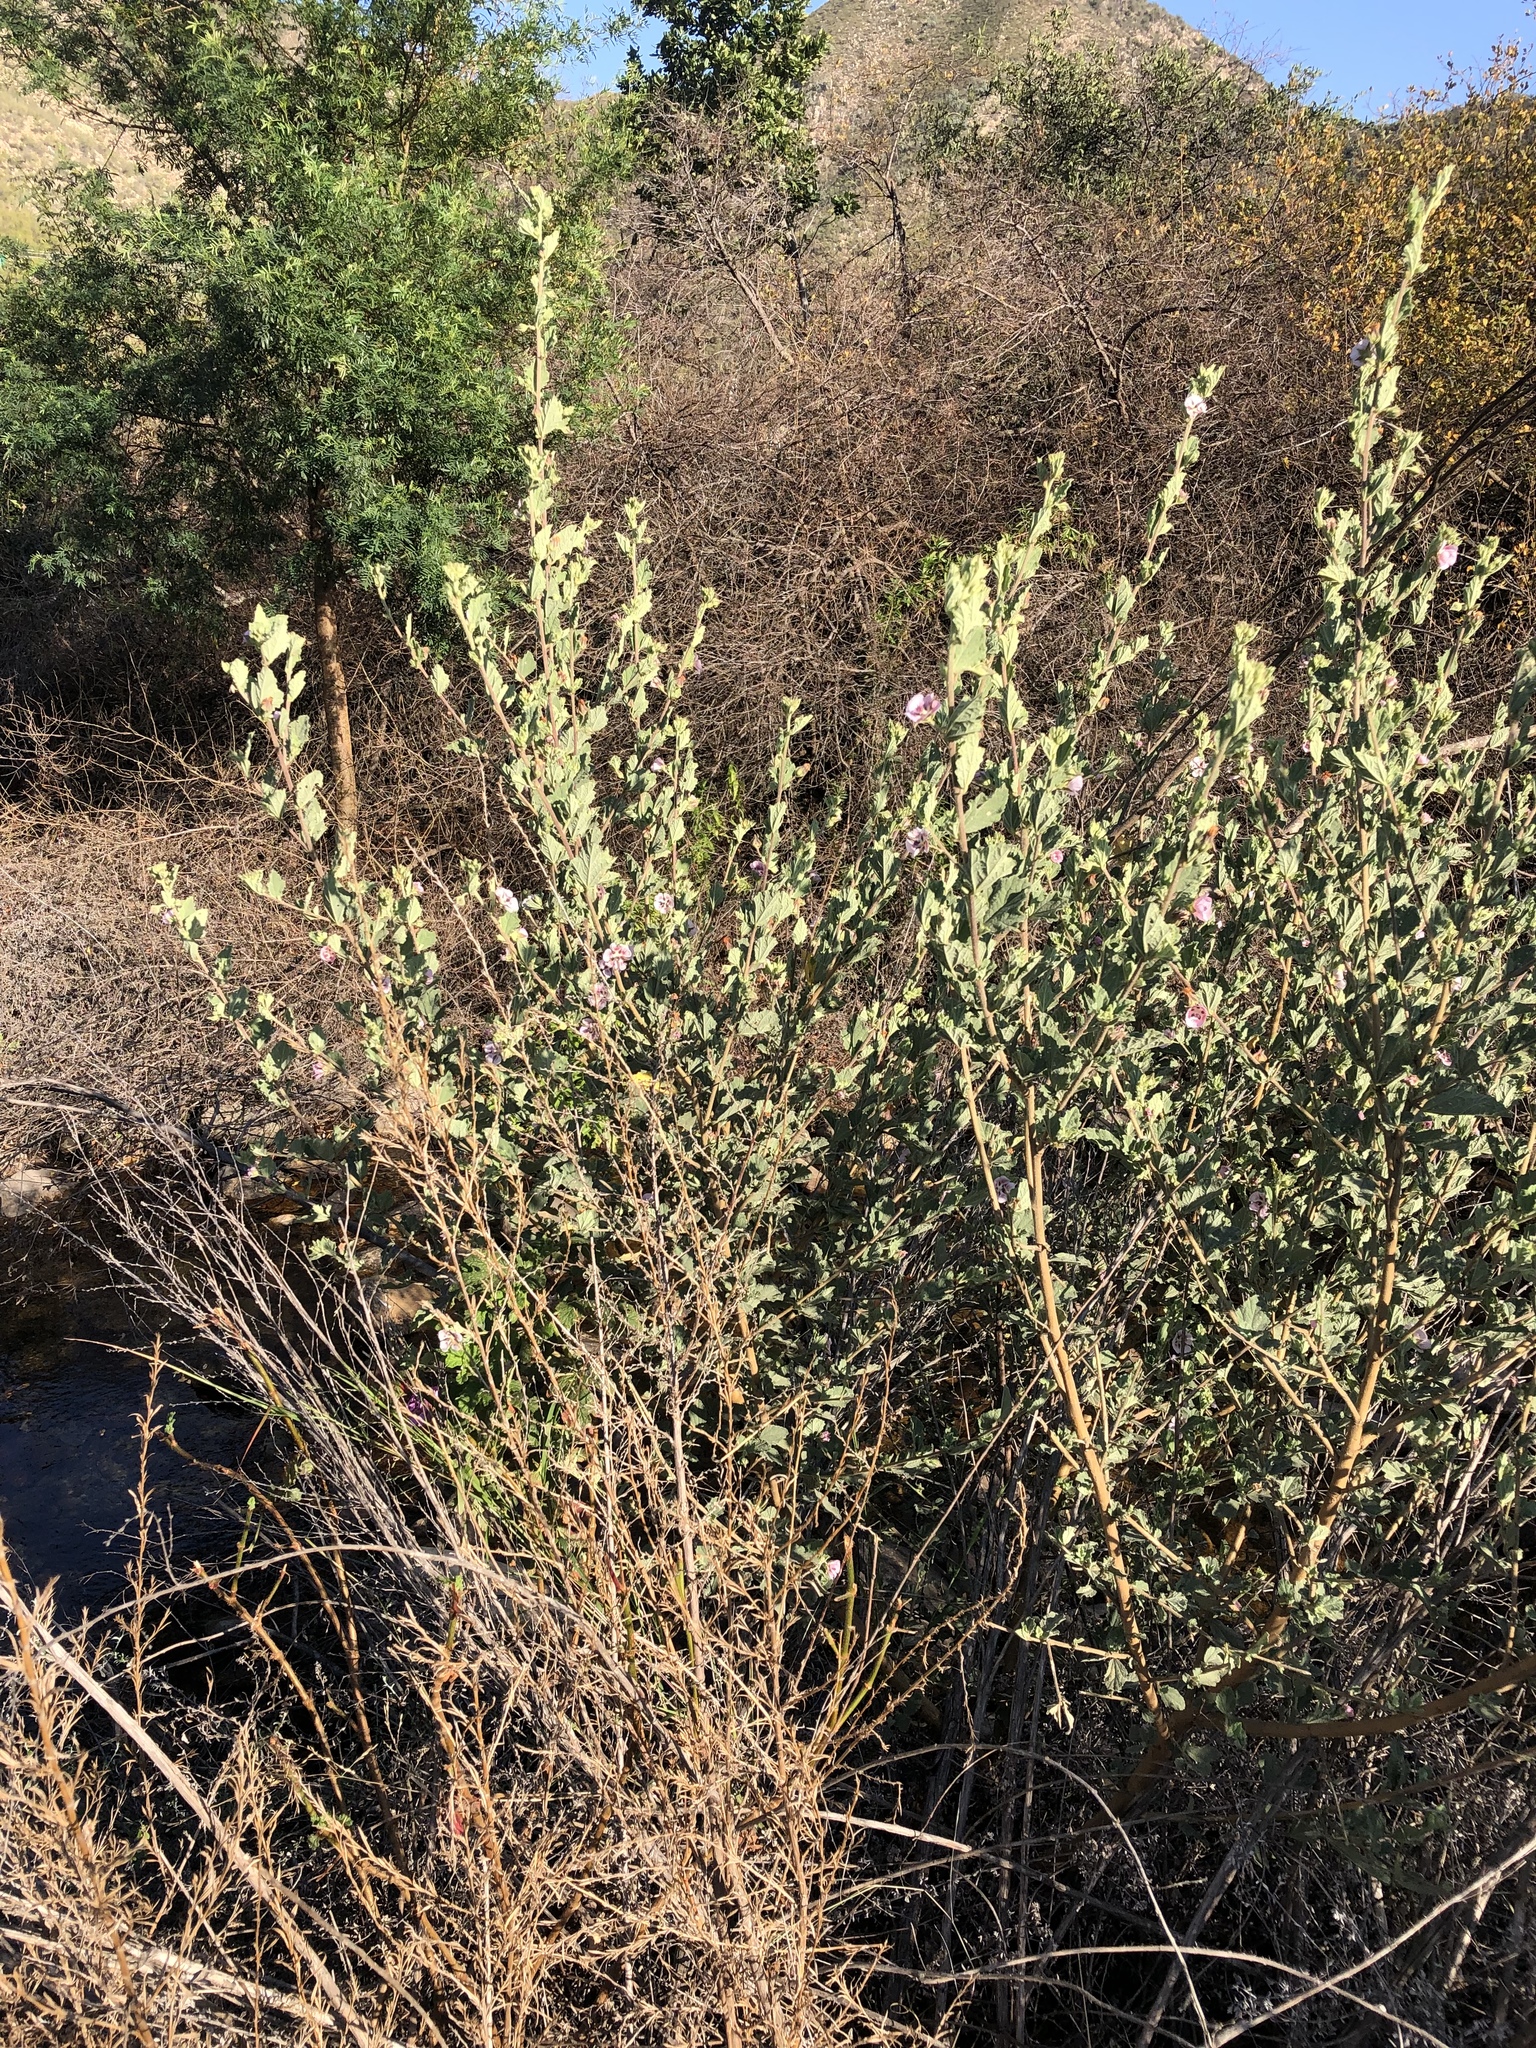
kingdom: Plantae
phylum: Tracheophyta
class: Magnoliopsida
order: Malvales
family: Malvaceae
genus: Anisodontea
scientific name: Anisodontea triloba
